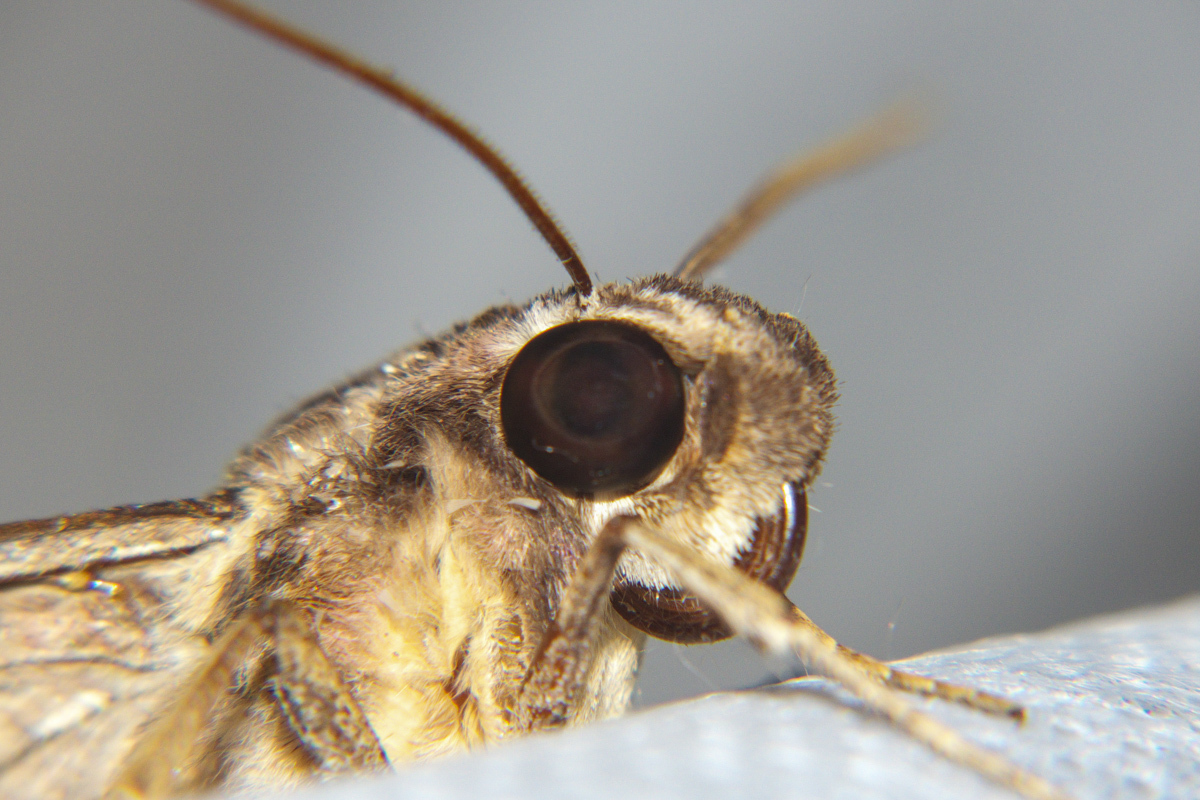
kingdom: Animalia
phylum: Arthropoda
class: Insecta
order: Lepidoptera
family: Sphingidae
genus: Elibia
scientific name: Elibia dolichus
